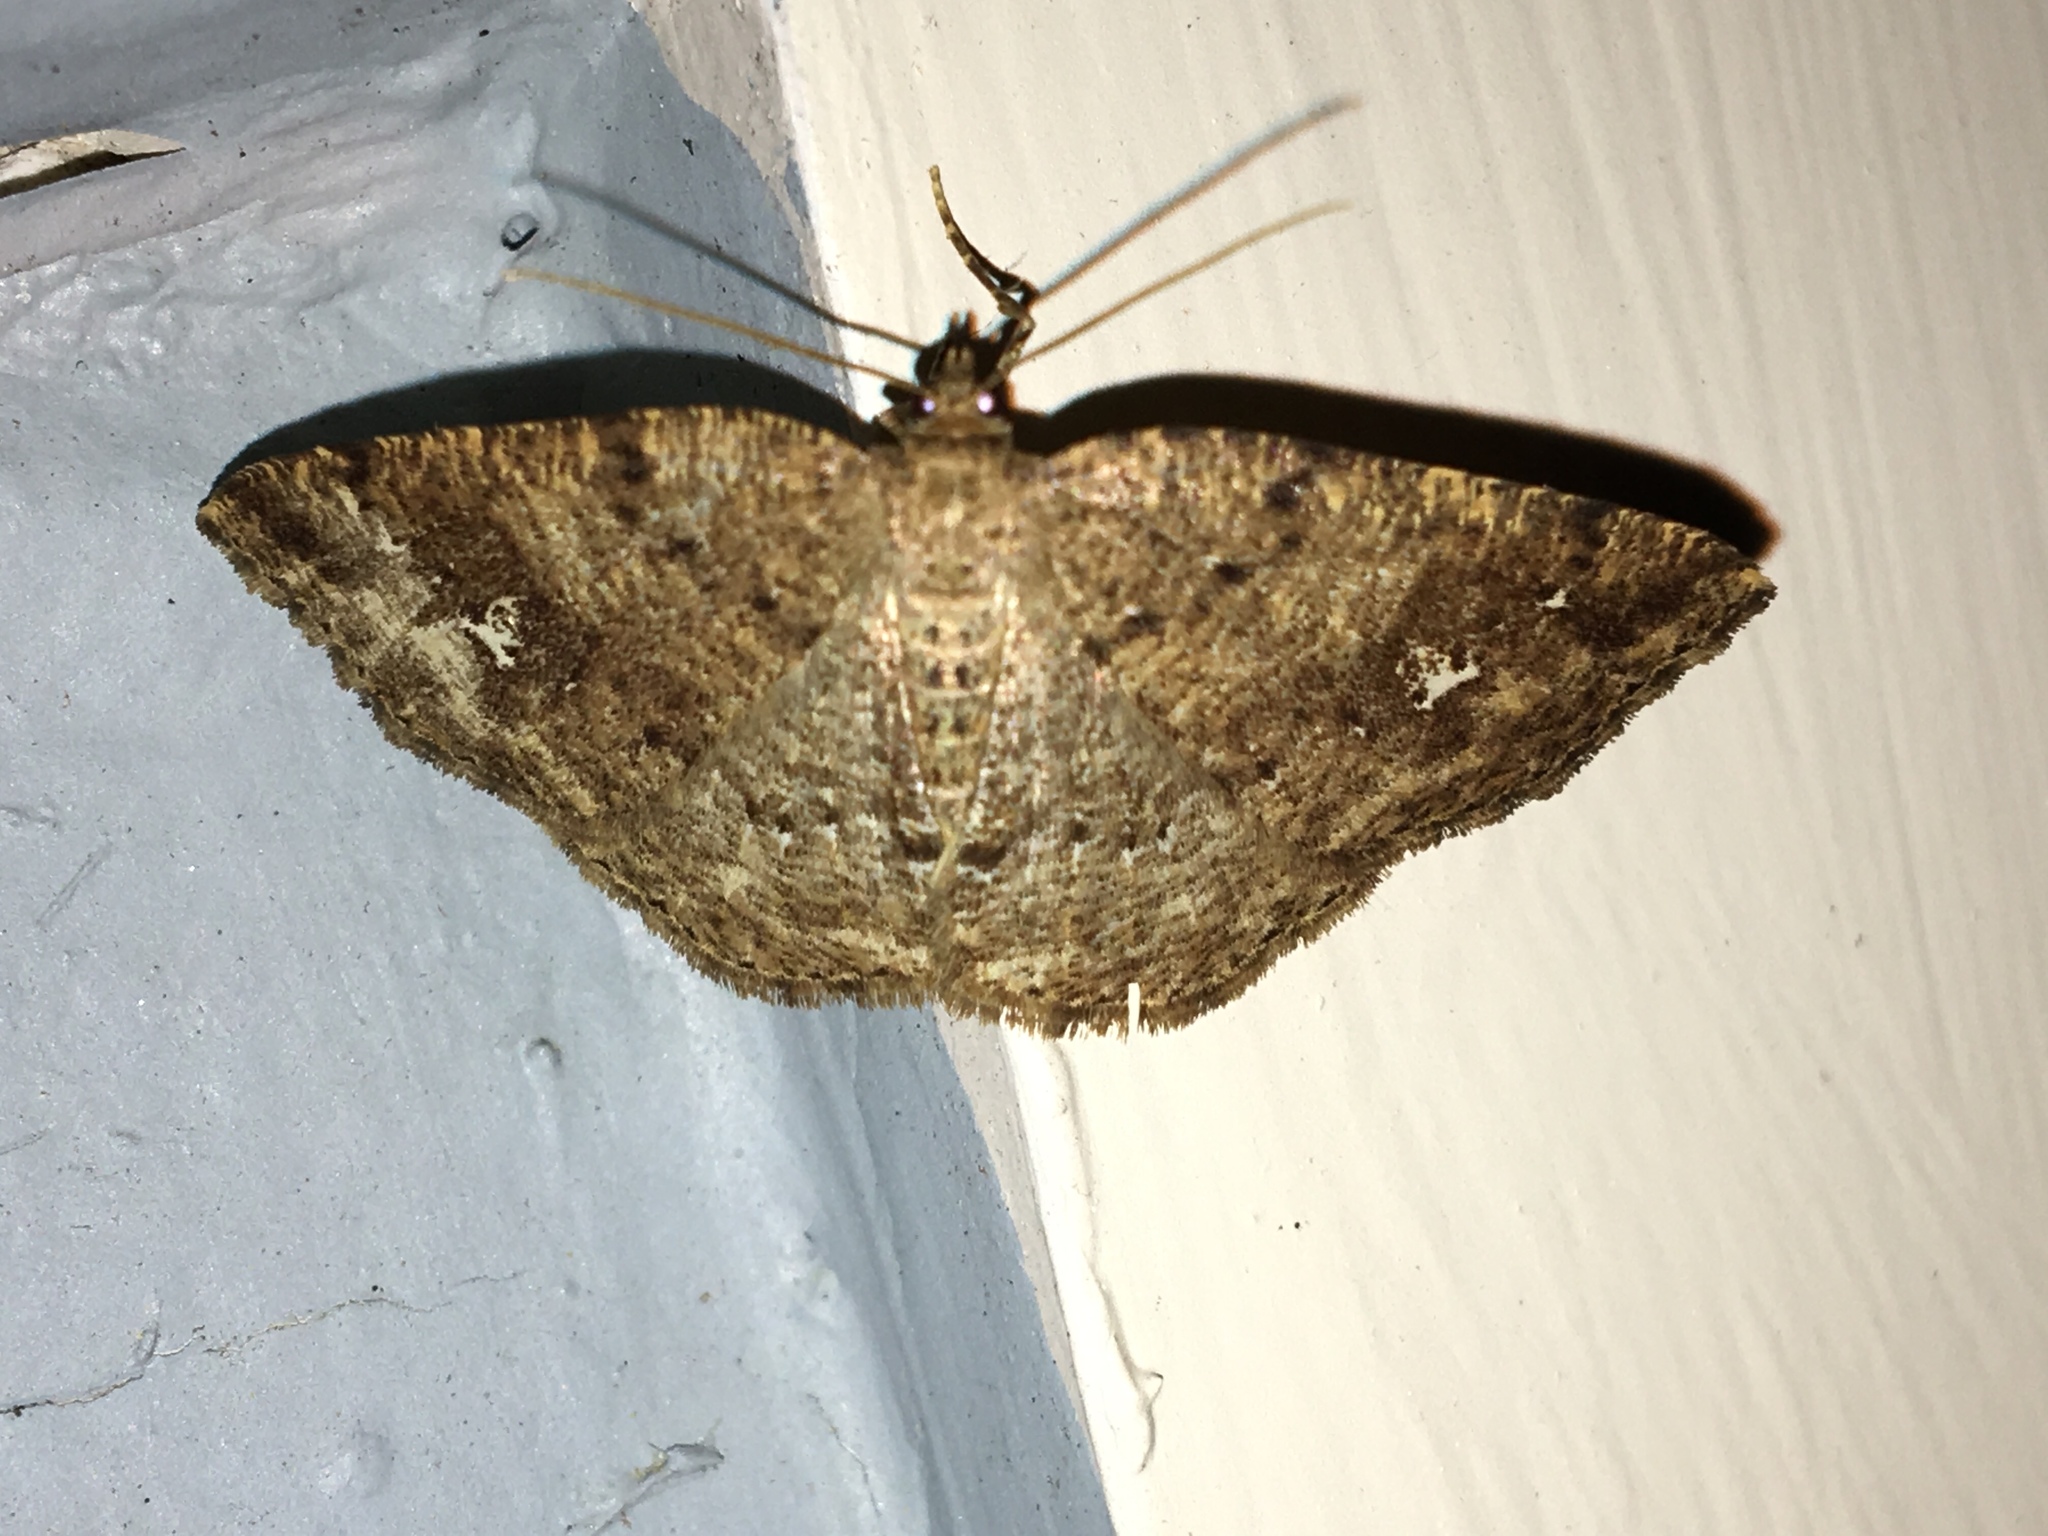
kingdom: Animalia
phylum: Arthropoda
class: Insecta
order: Lepidoptera
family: Geometridae
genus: Homochlodes
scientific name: Homochlodes fritillaria
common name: Pale homochlodes
